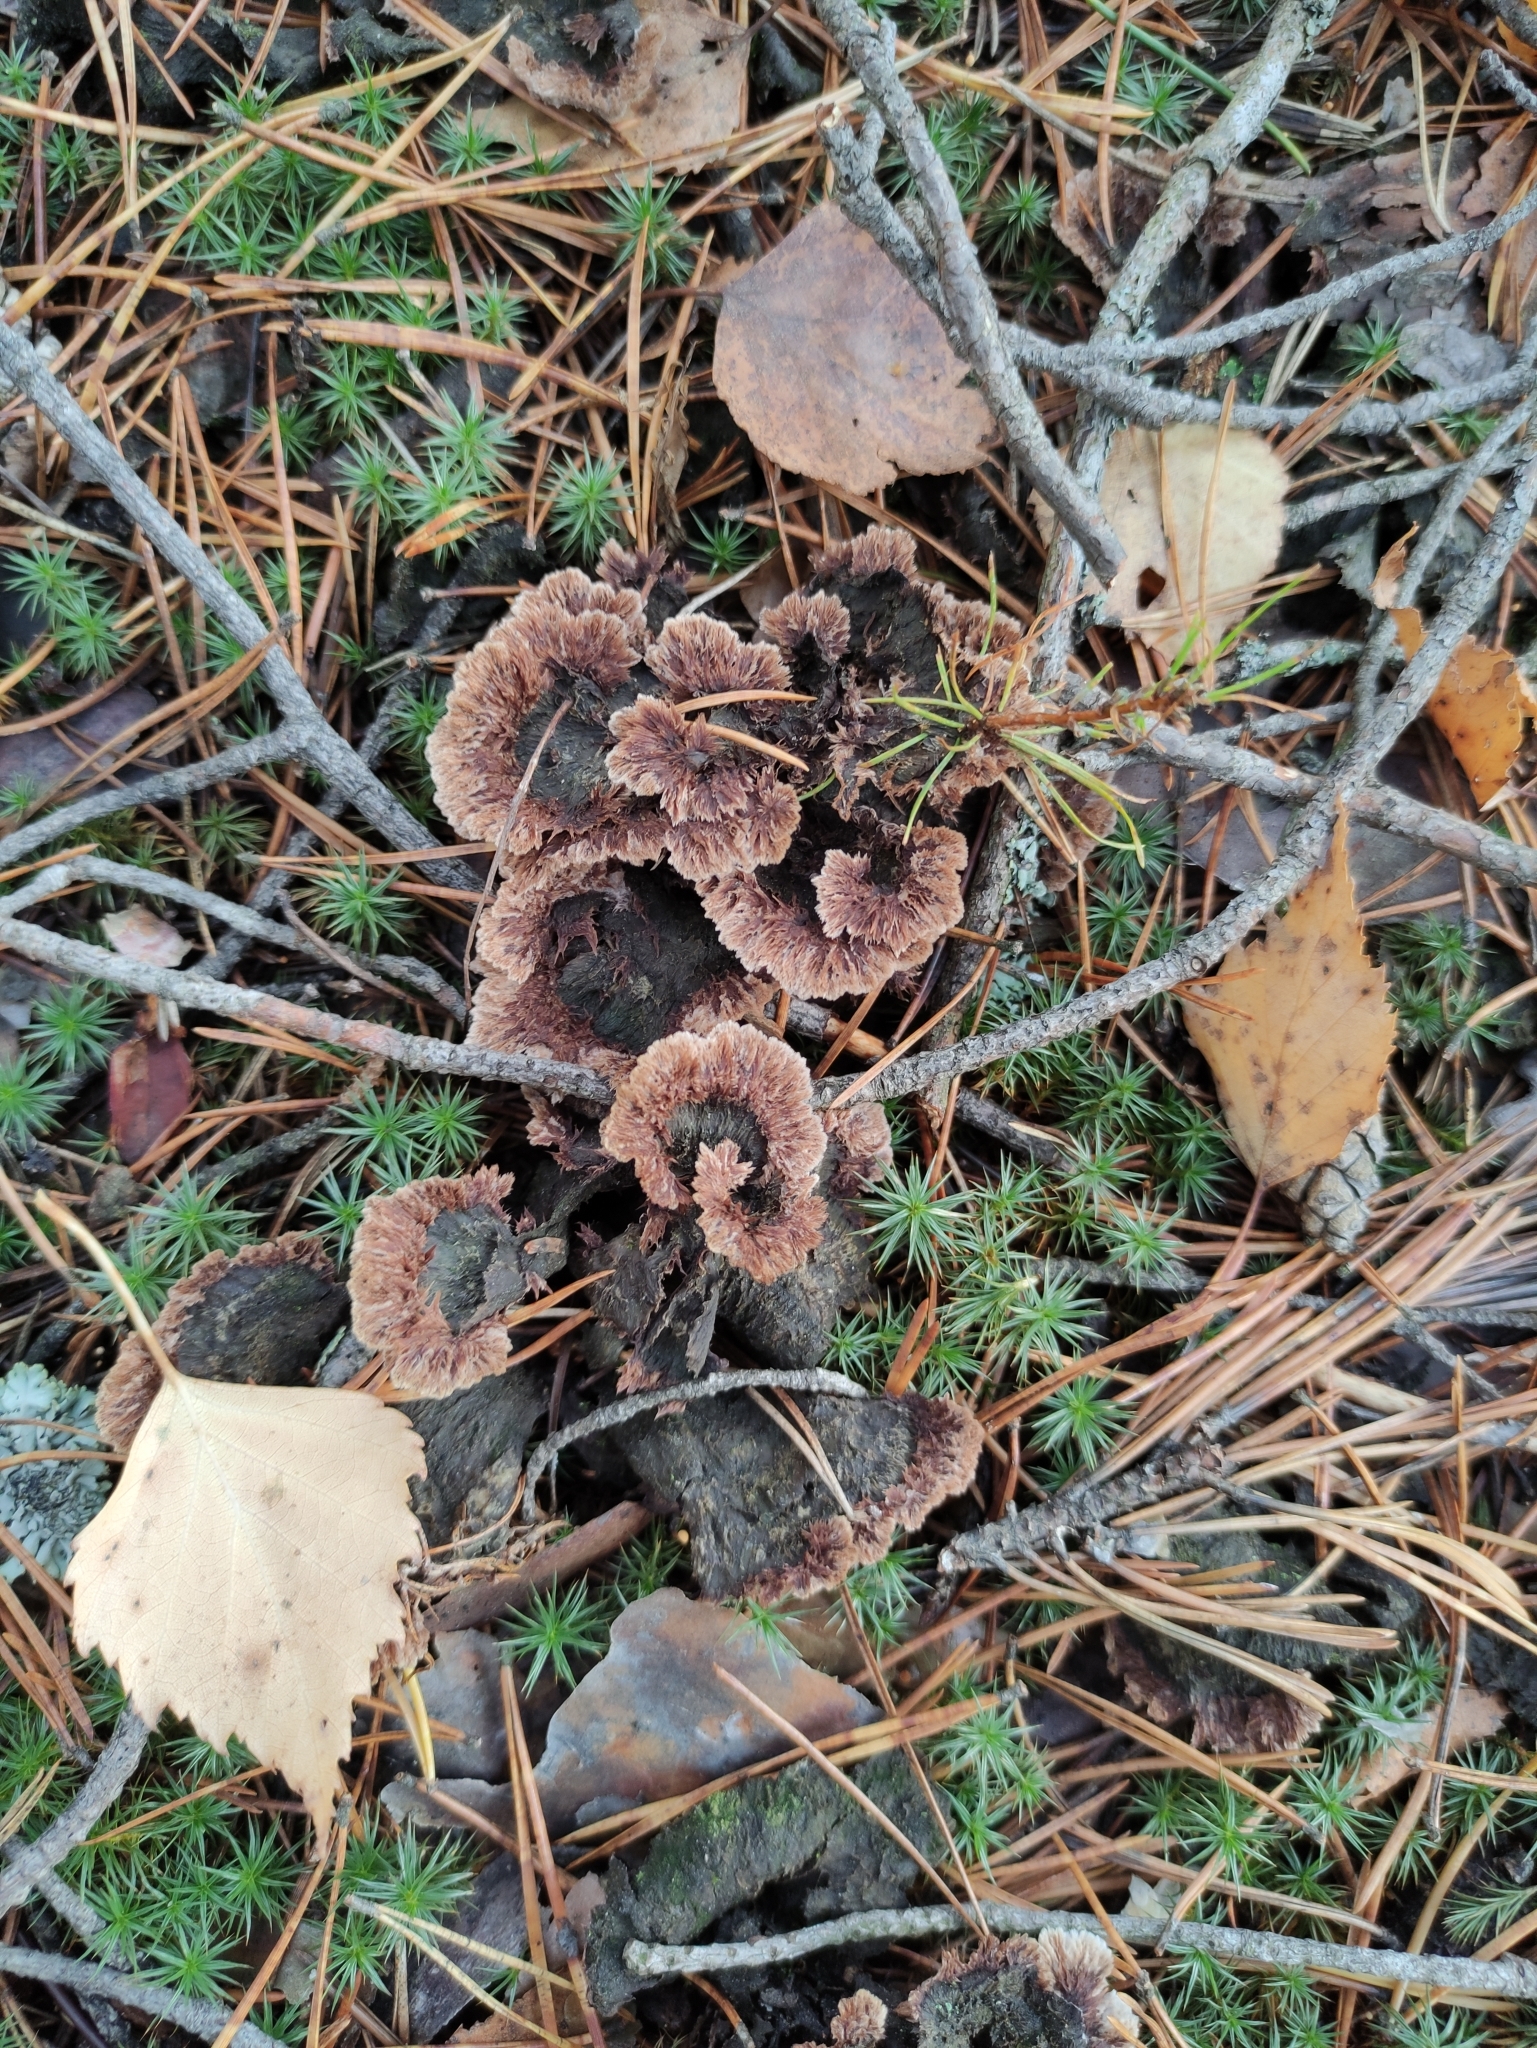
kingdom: Fungi
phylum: Basidiomycota
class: Agaricomycetes
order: Thelephorales
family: Thelephoraceae
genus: Thelephora
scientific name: Thelephora terrestris
